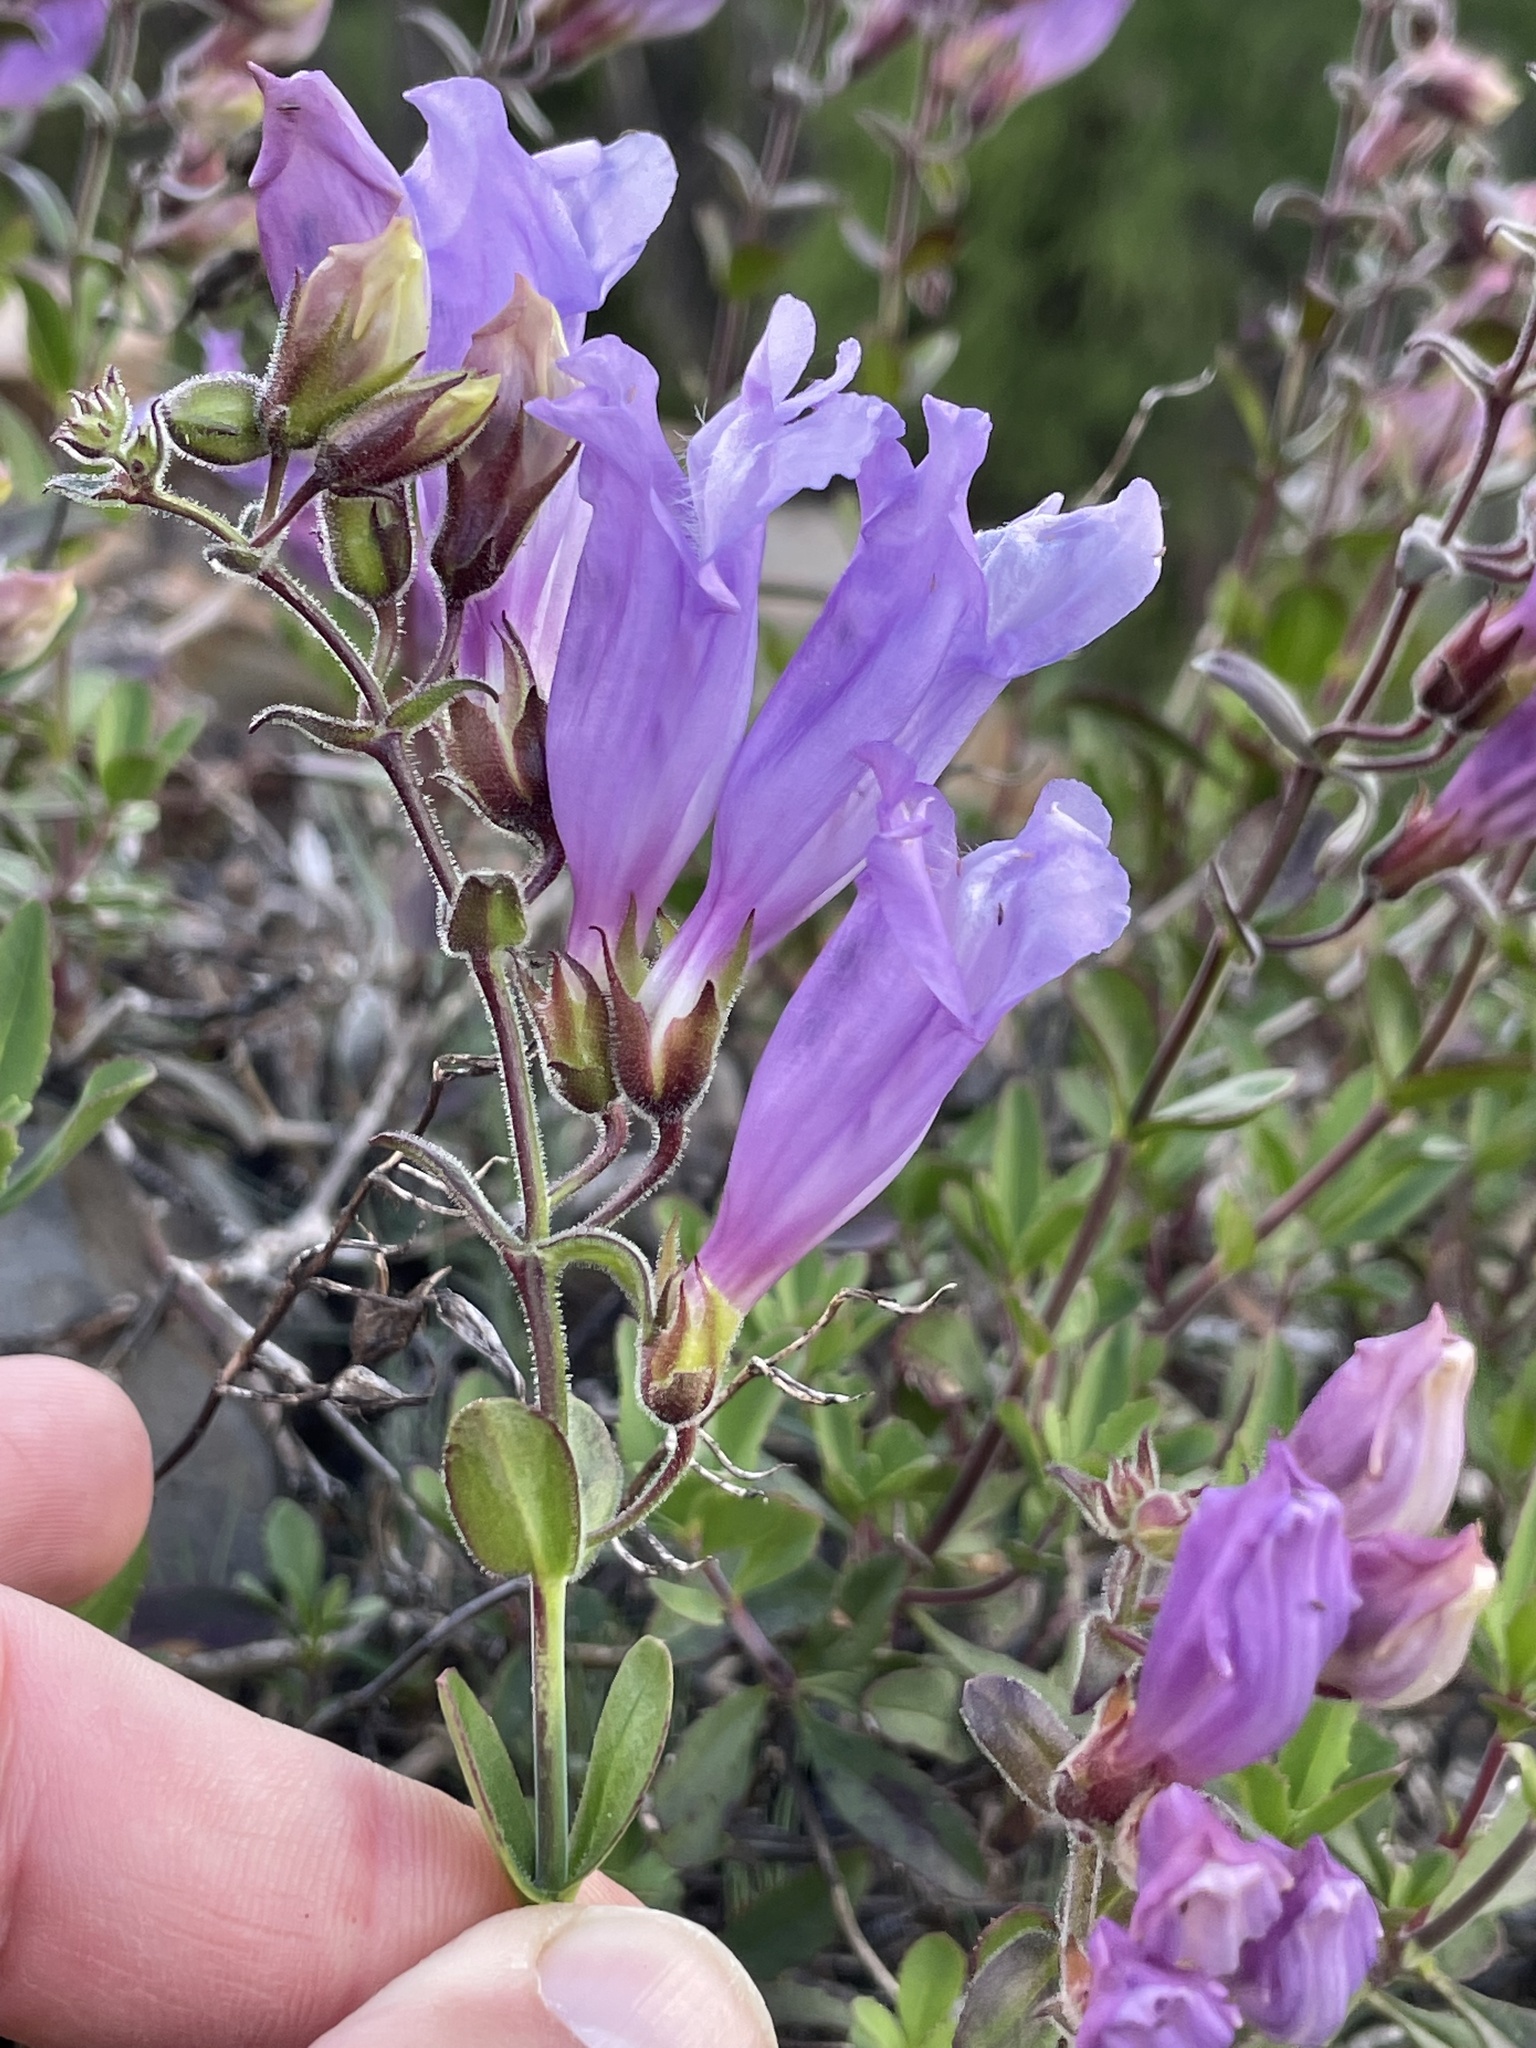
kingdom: Plantae
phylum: Tracheophyta
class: Magnoliopsida
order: Lamiales
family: Plantaginaceae
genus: Penstemon
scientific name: Penstemon fruticosus
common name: Bush penstemon
